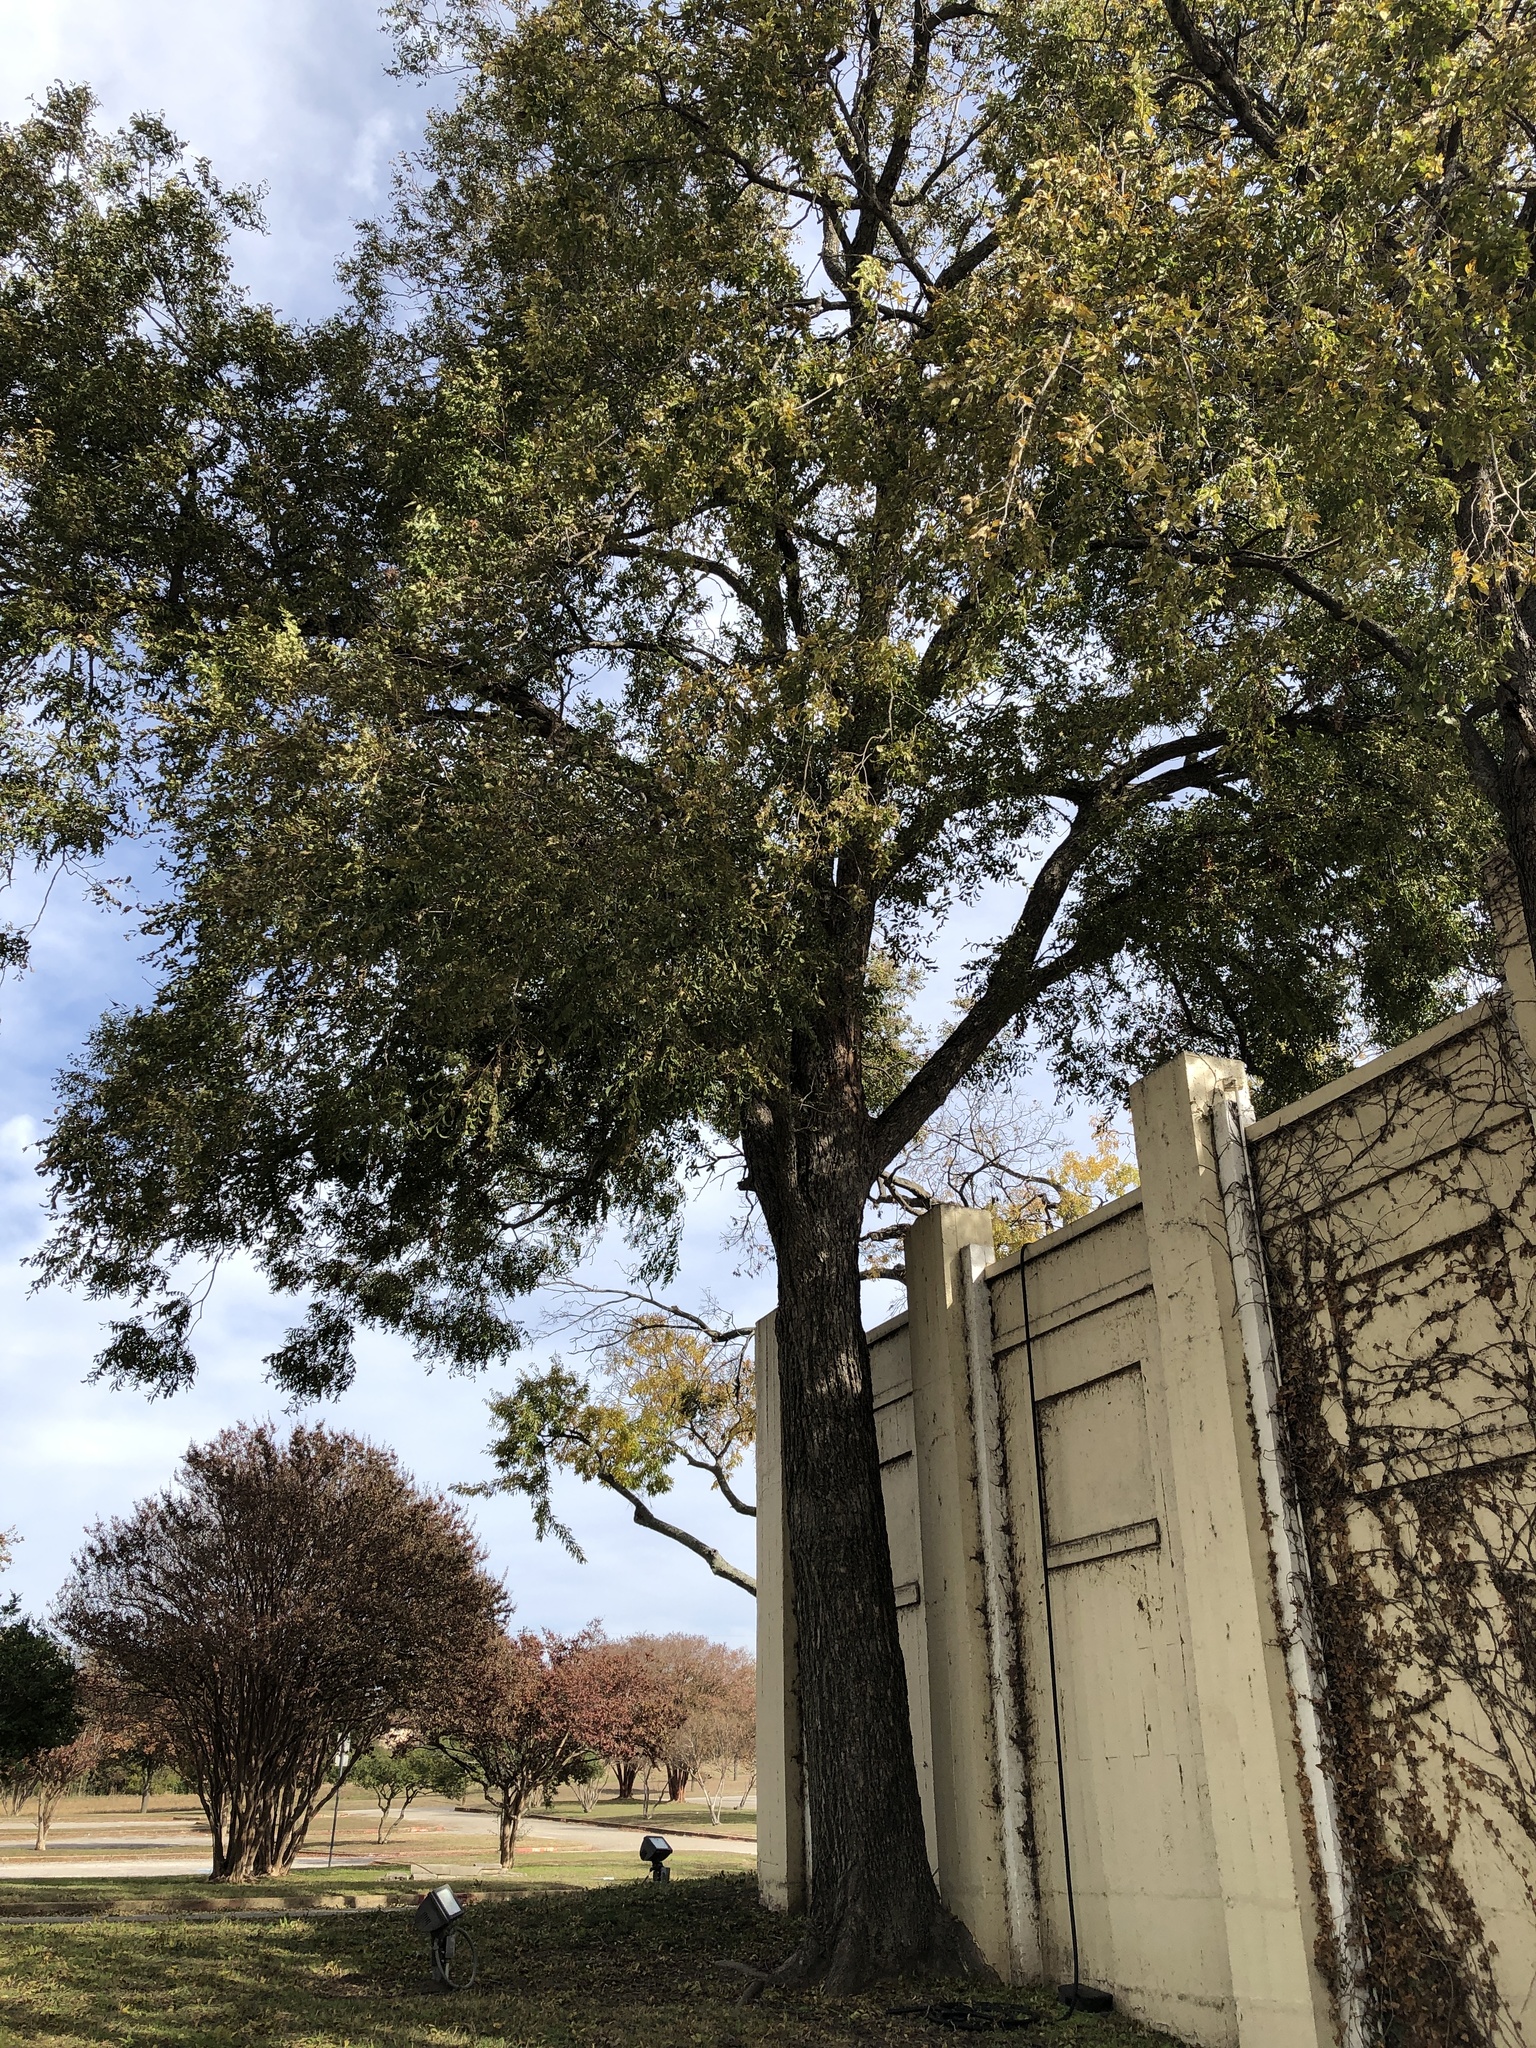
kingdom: Plantae
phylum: Tracheophyta
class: Magnoliopsida
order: Fagales
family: Juglandaceae
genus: Carya
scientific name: Carya illinoinensis
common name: Pecan
